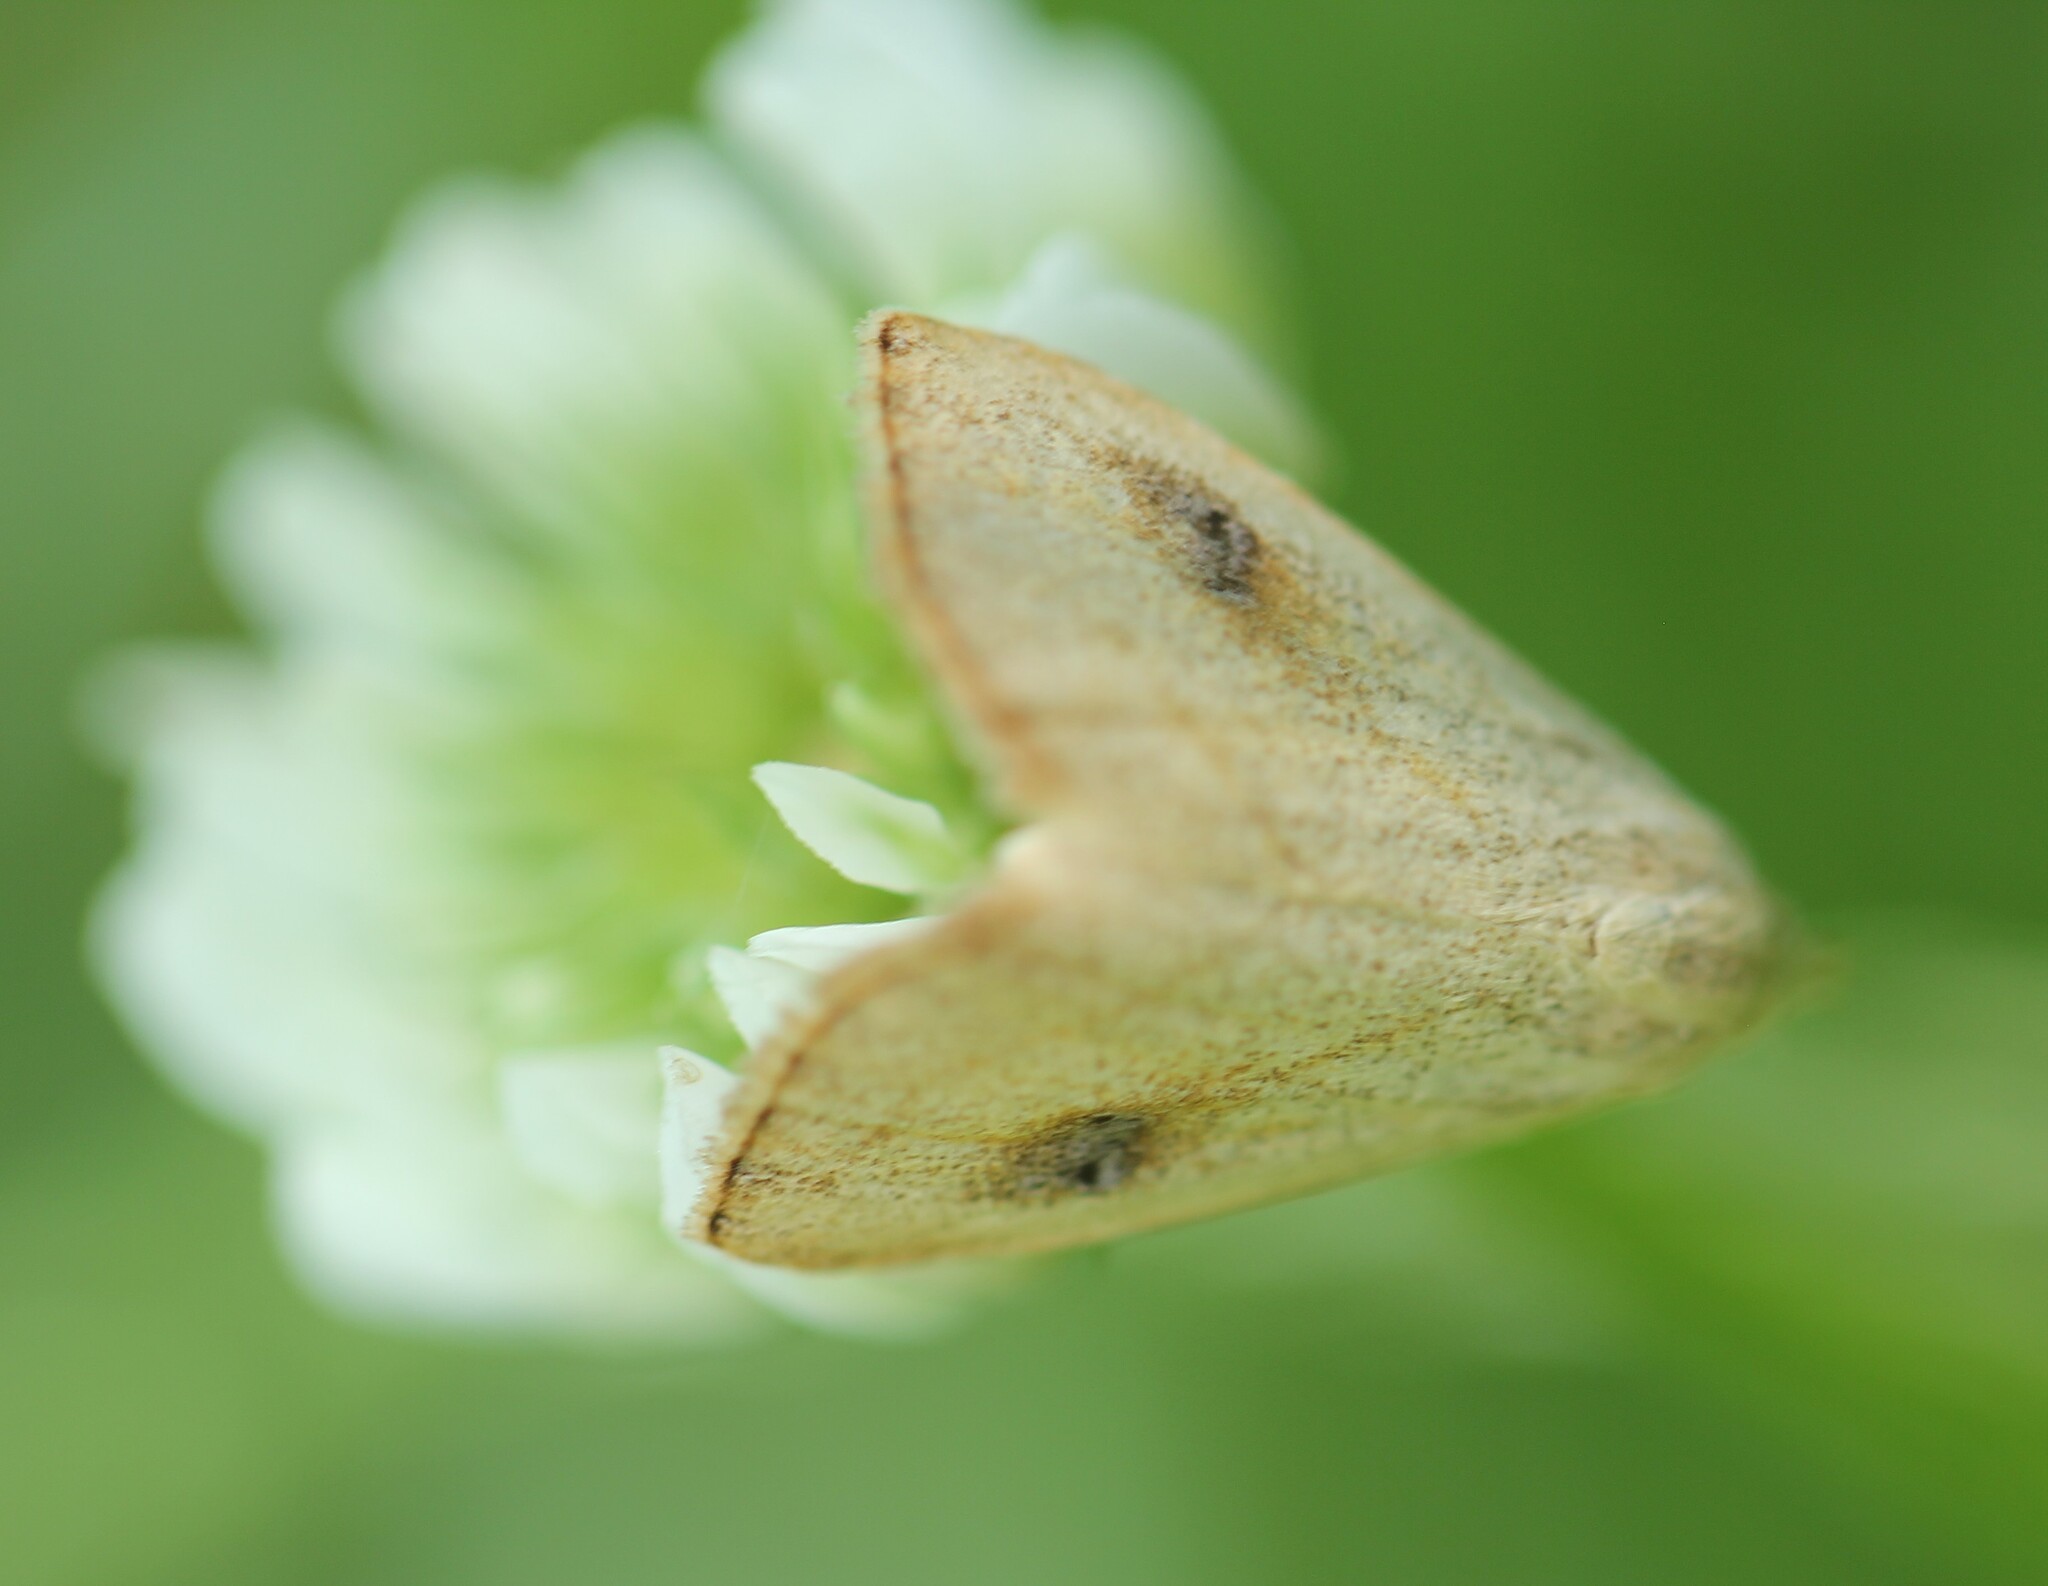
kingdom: Animalia
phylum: Arthropoda
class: Insecta
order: Lepidoptera
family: Erebidae
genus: Rivula
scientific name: Rivula propinqualis
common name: Spotted grass moth
